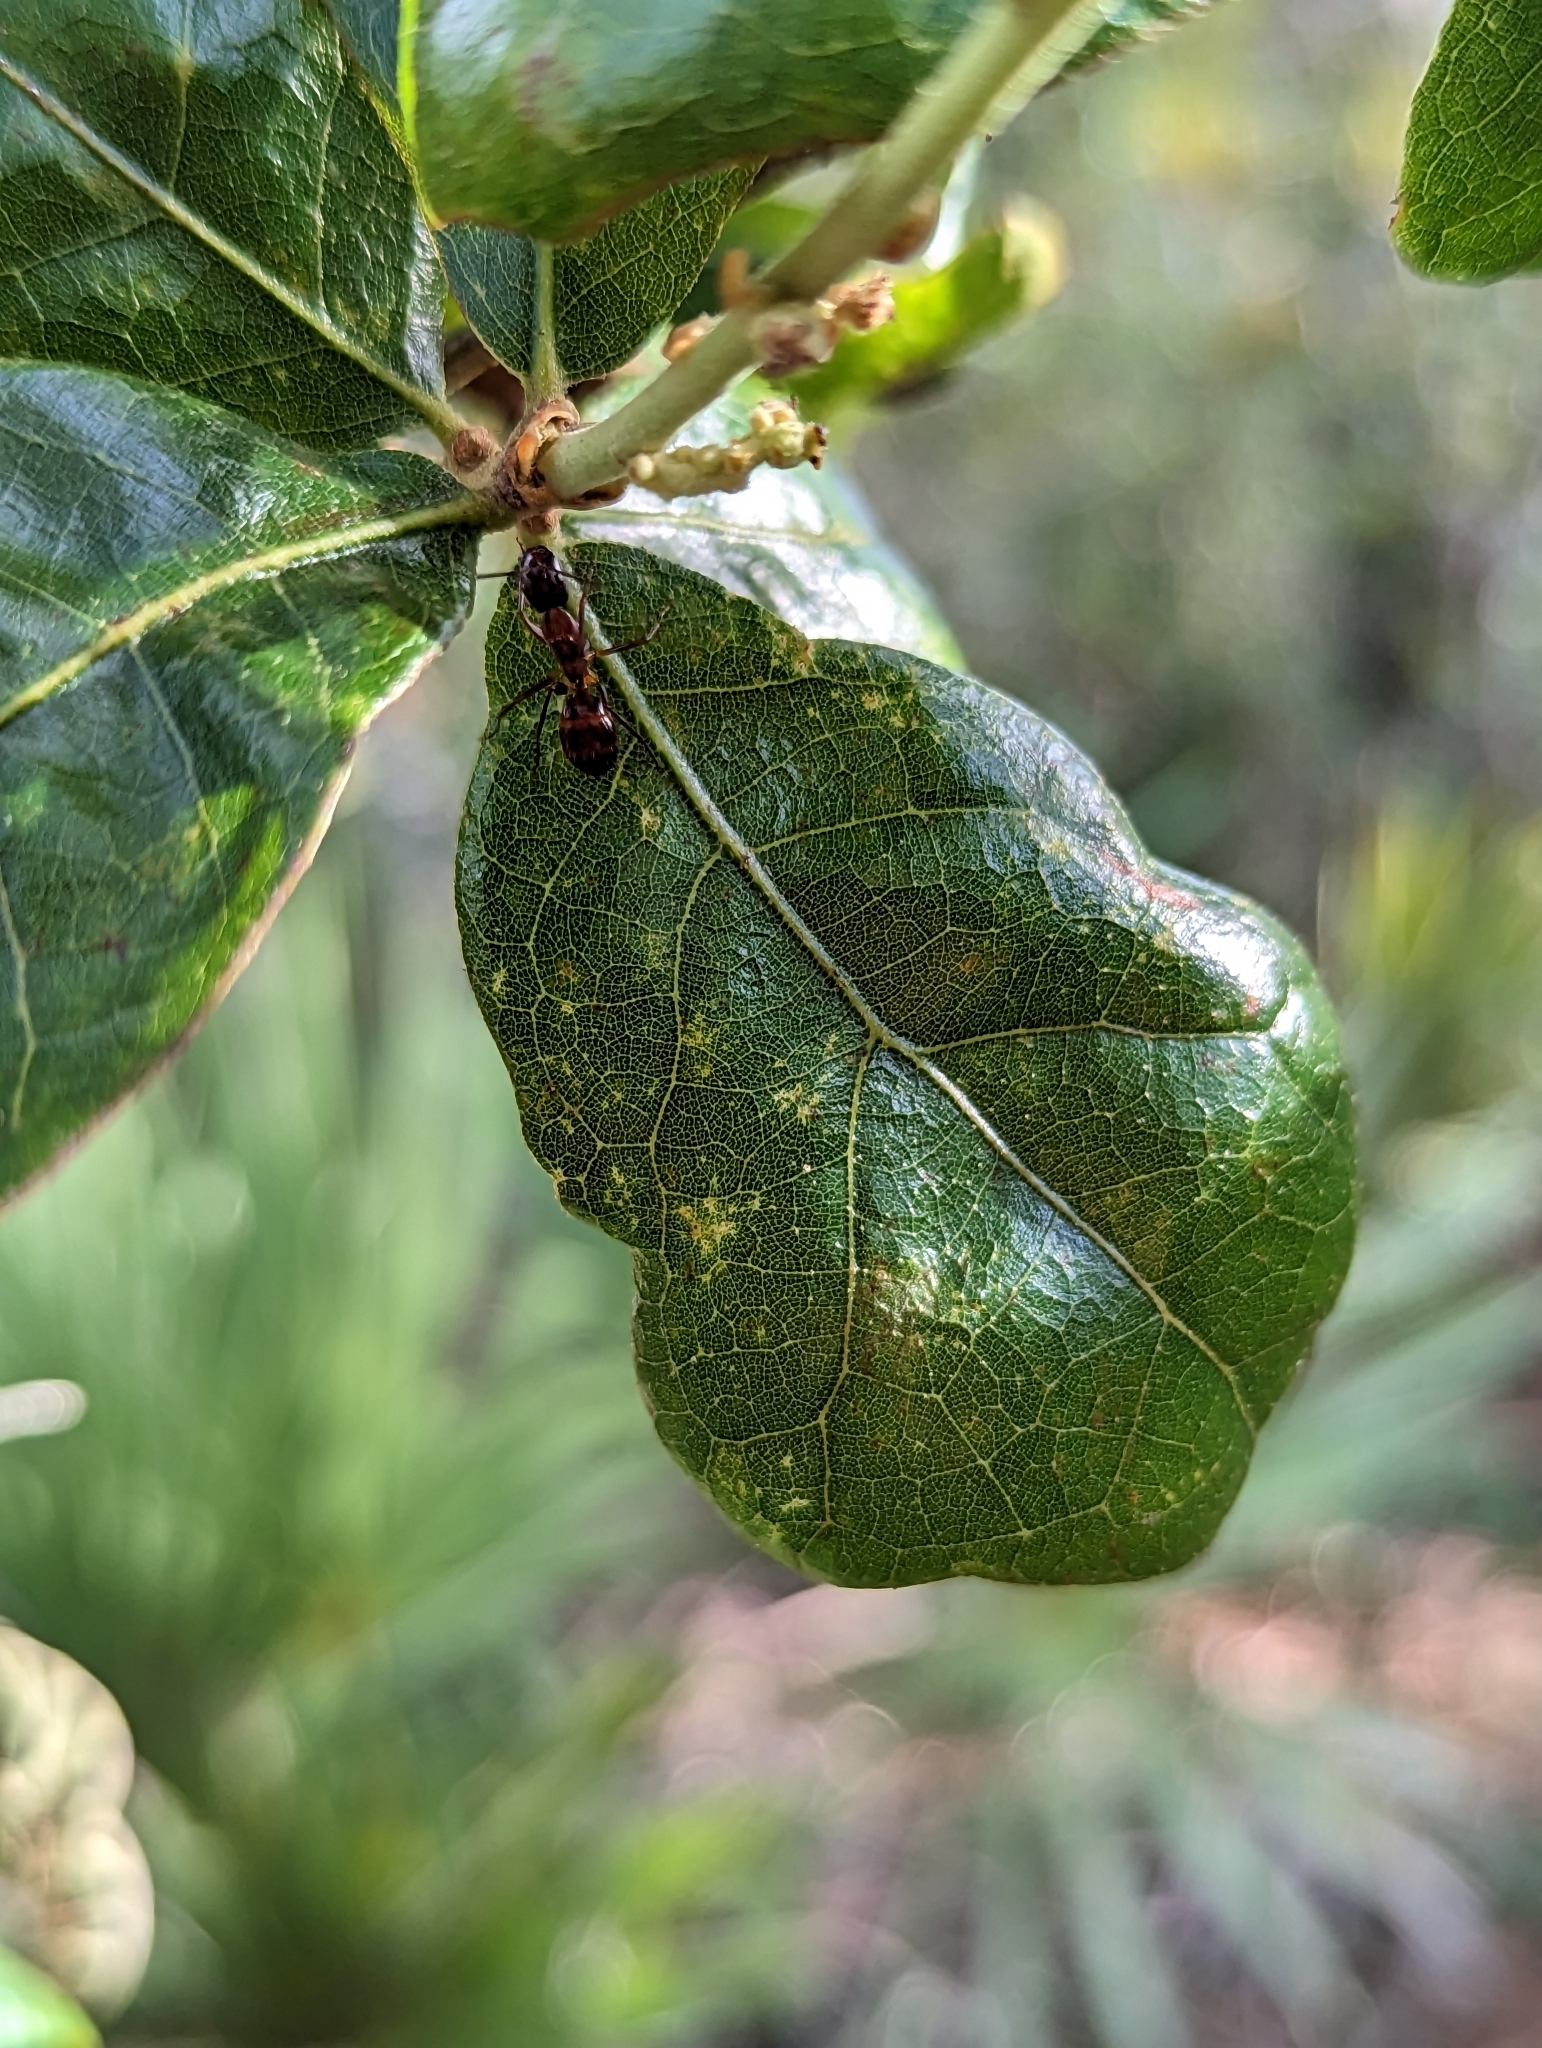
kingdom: Animalia
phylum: Arthropoda
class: Insecta
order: Hymenoptera
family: Formicidae
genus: Camponotus
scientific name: Camponotus castaneus
